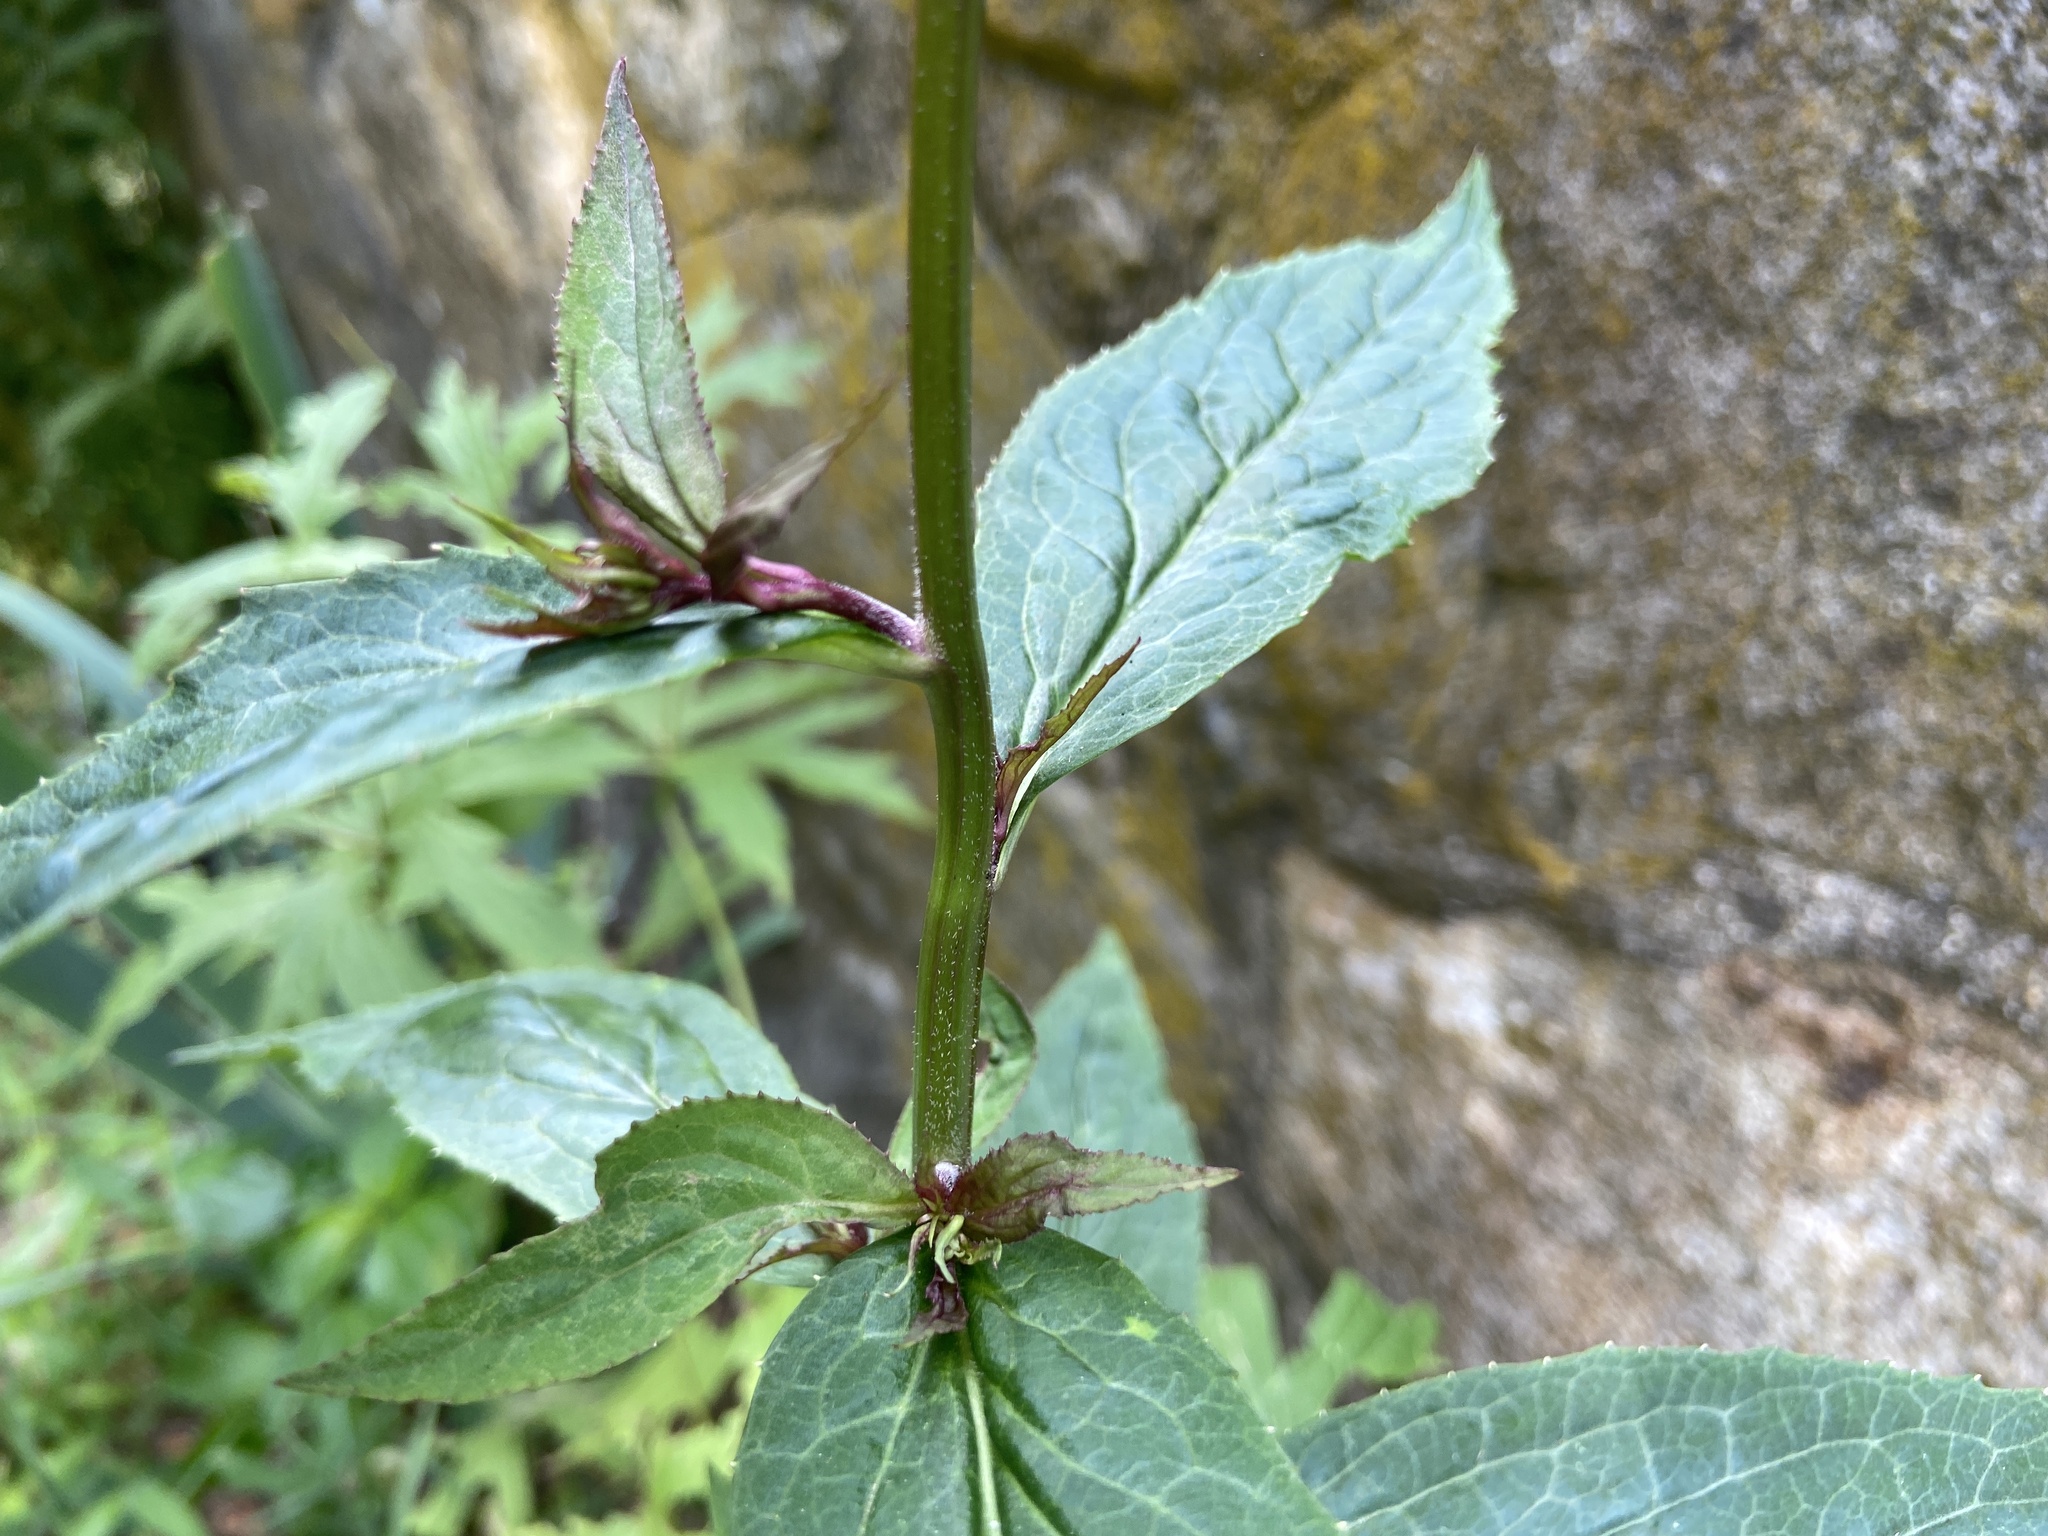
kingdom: Plantae
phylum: Tracheophyta
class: Magnoliopsida
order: Asterales
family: Campanulaceae
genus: Lobelia
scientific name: Lobelia cardinalis
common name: Cardinal flower
